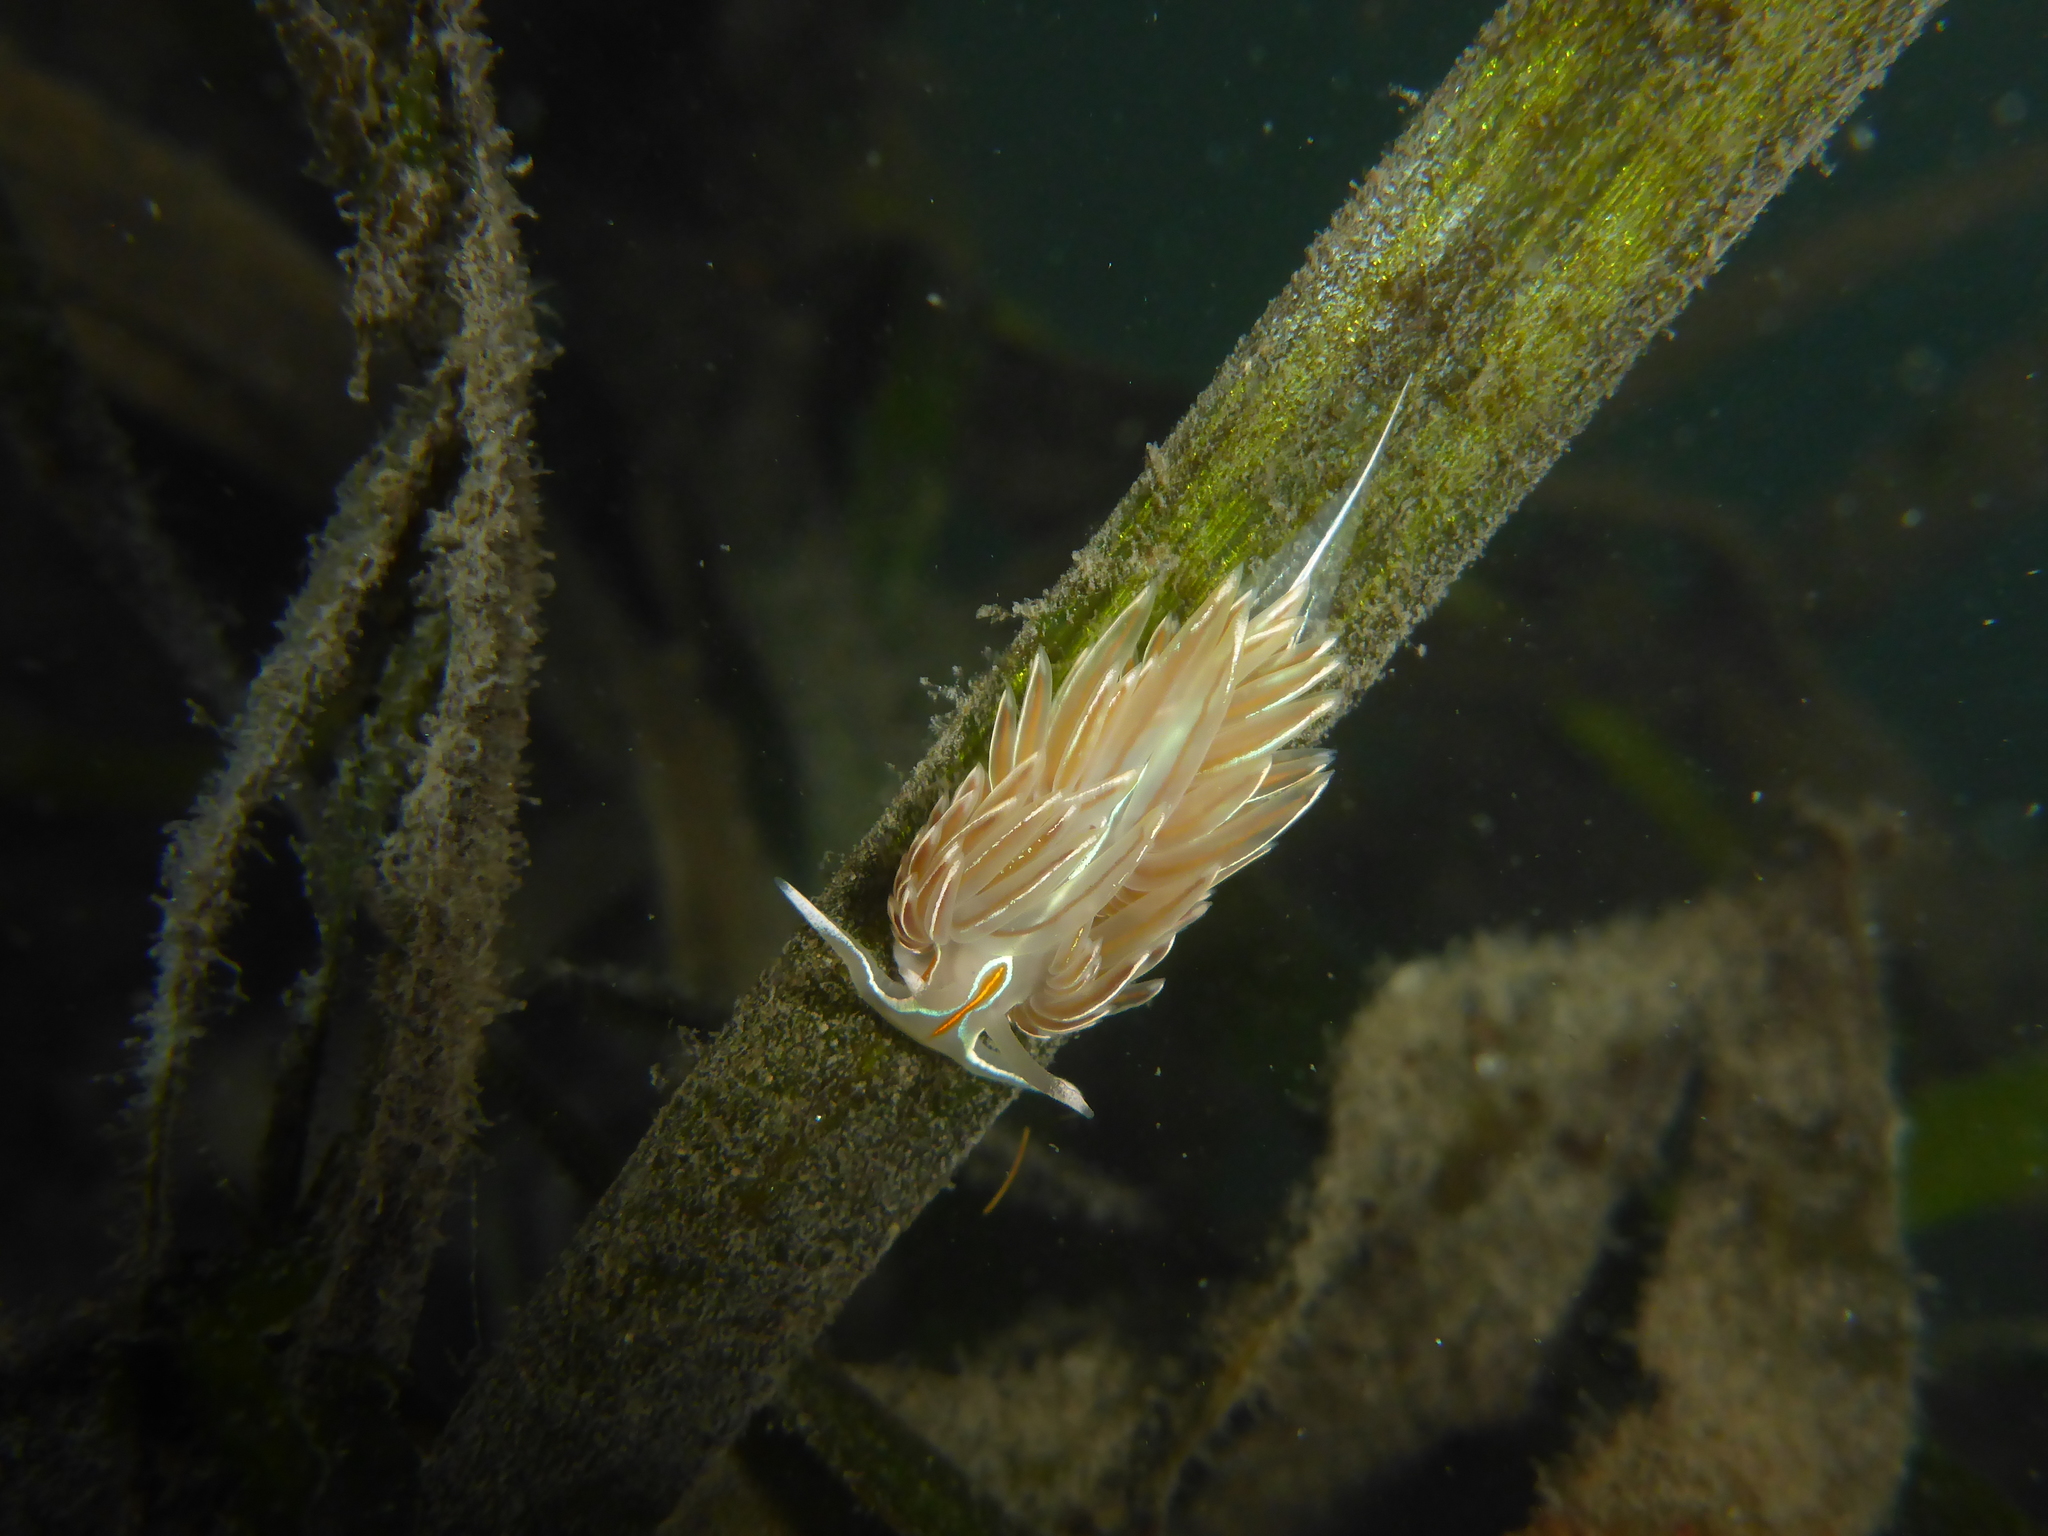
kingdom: Animalia
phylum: Mollusca
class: Gastropoda
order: Nudibranchia
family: Myrrhinidae
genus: Hermissenda
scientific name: Hermissenda crassicornis
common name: Hermissenda
